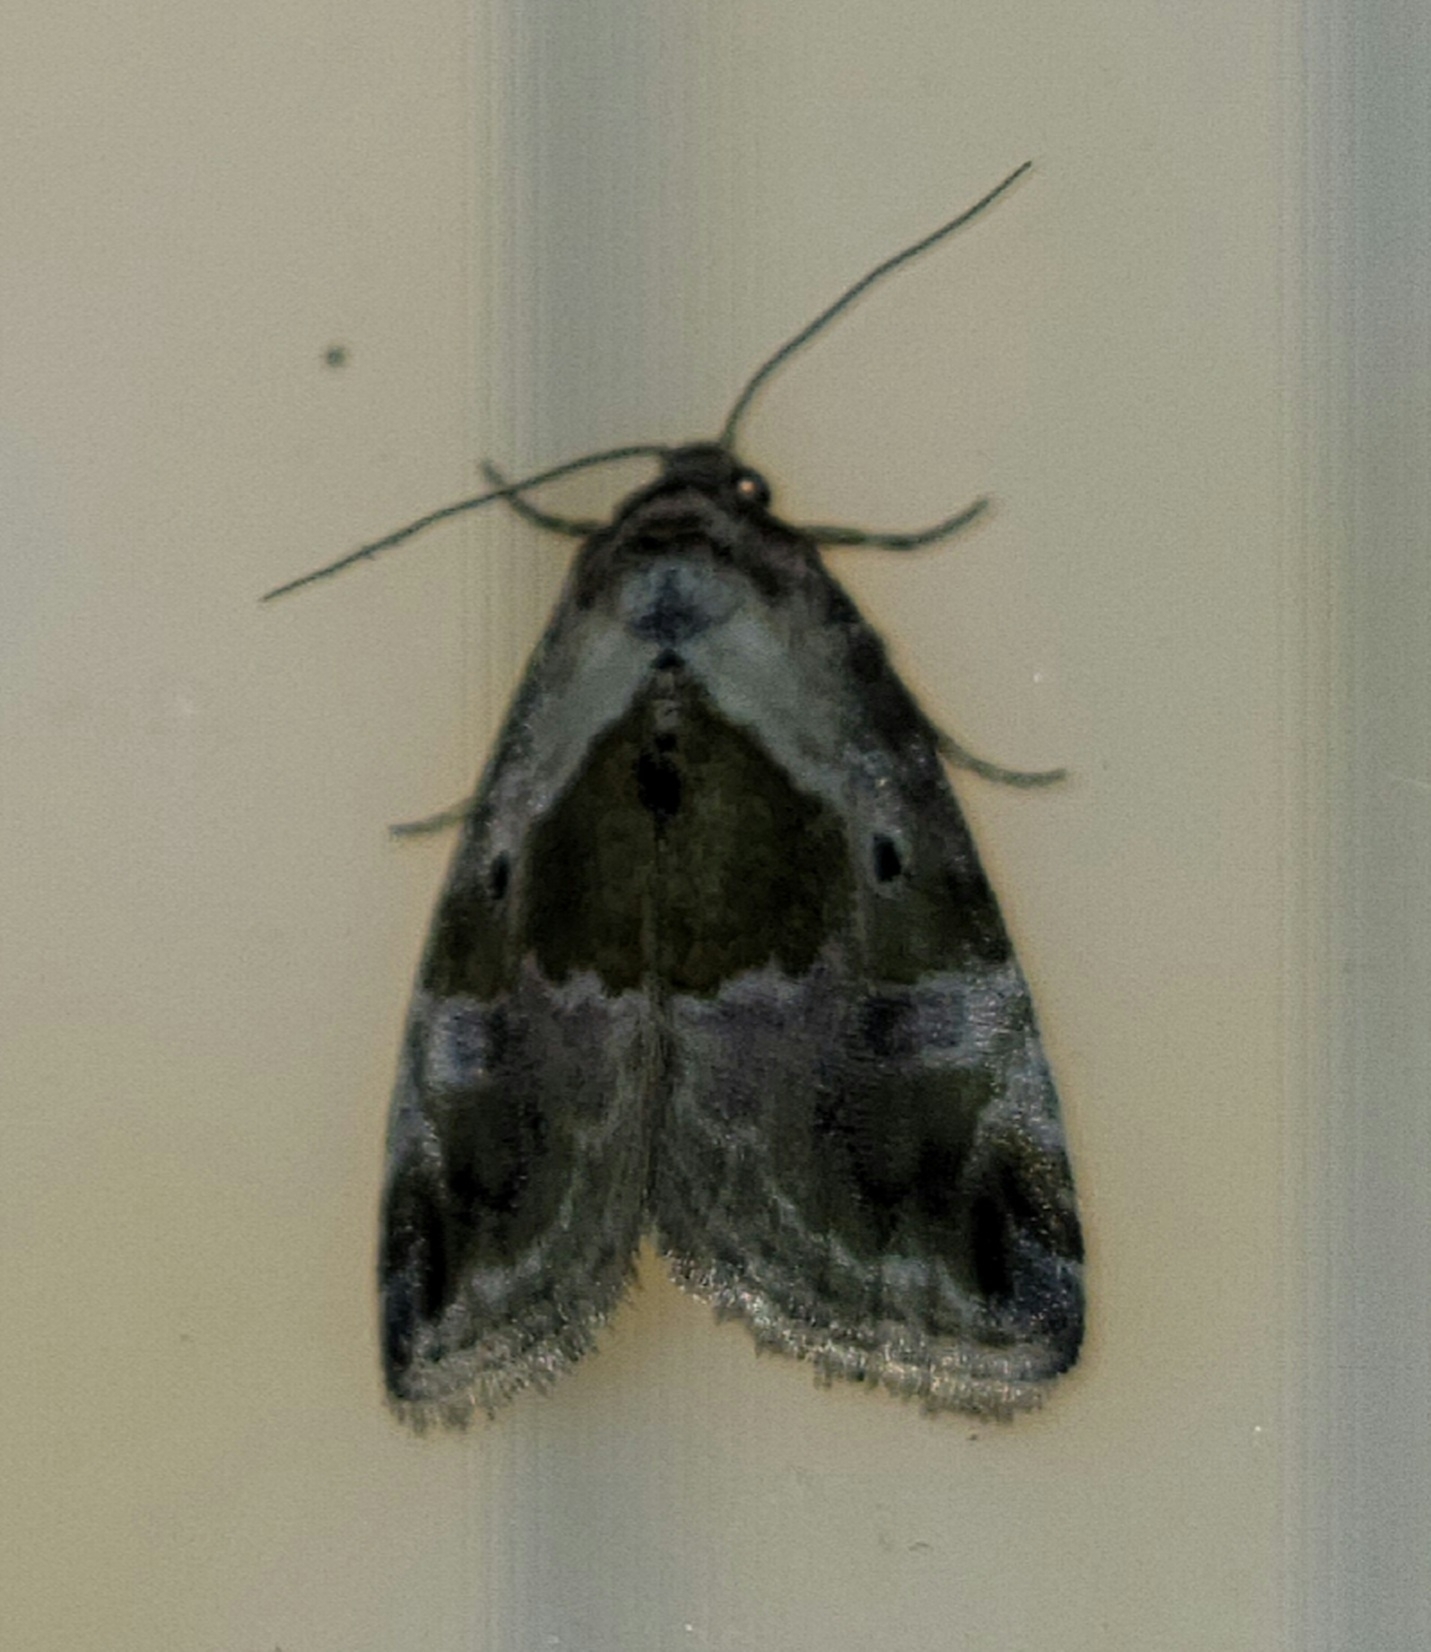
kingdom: Animalia
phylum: Arthropoda
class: Insecta
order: Lepidoptera
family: Noctuidae
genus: Maliattha
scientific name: Maliattha synochitis
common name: Black-dotted glyph
